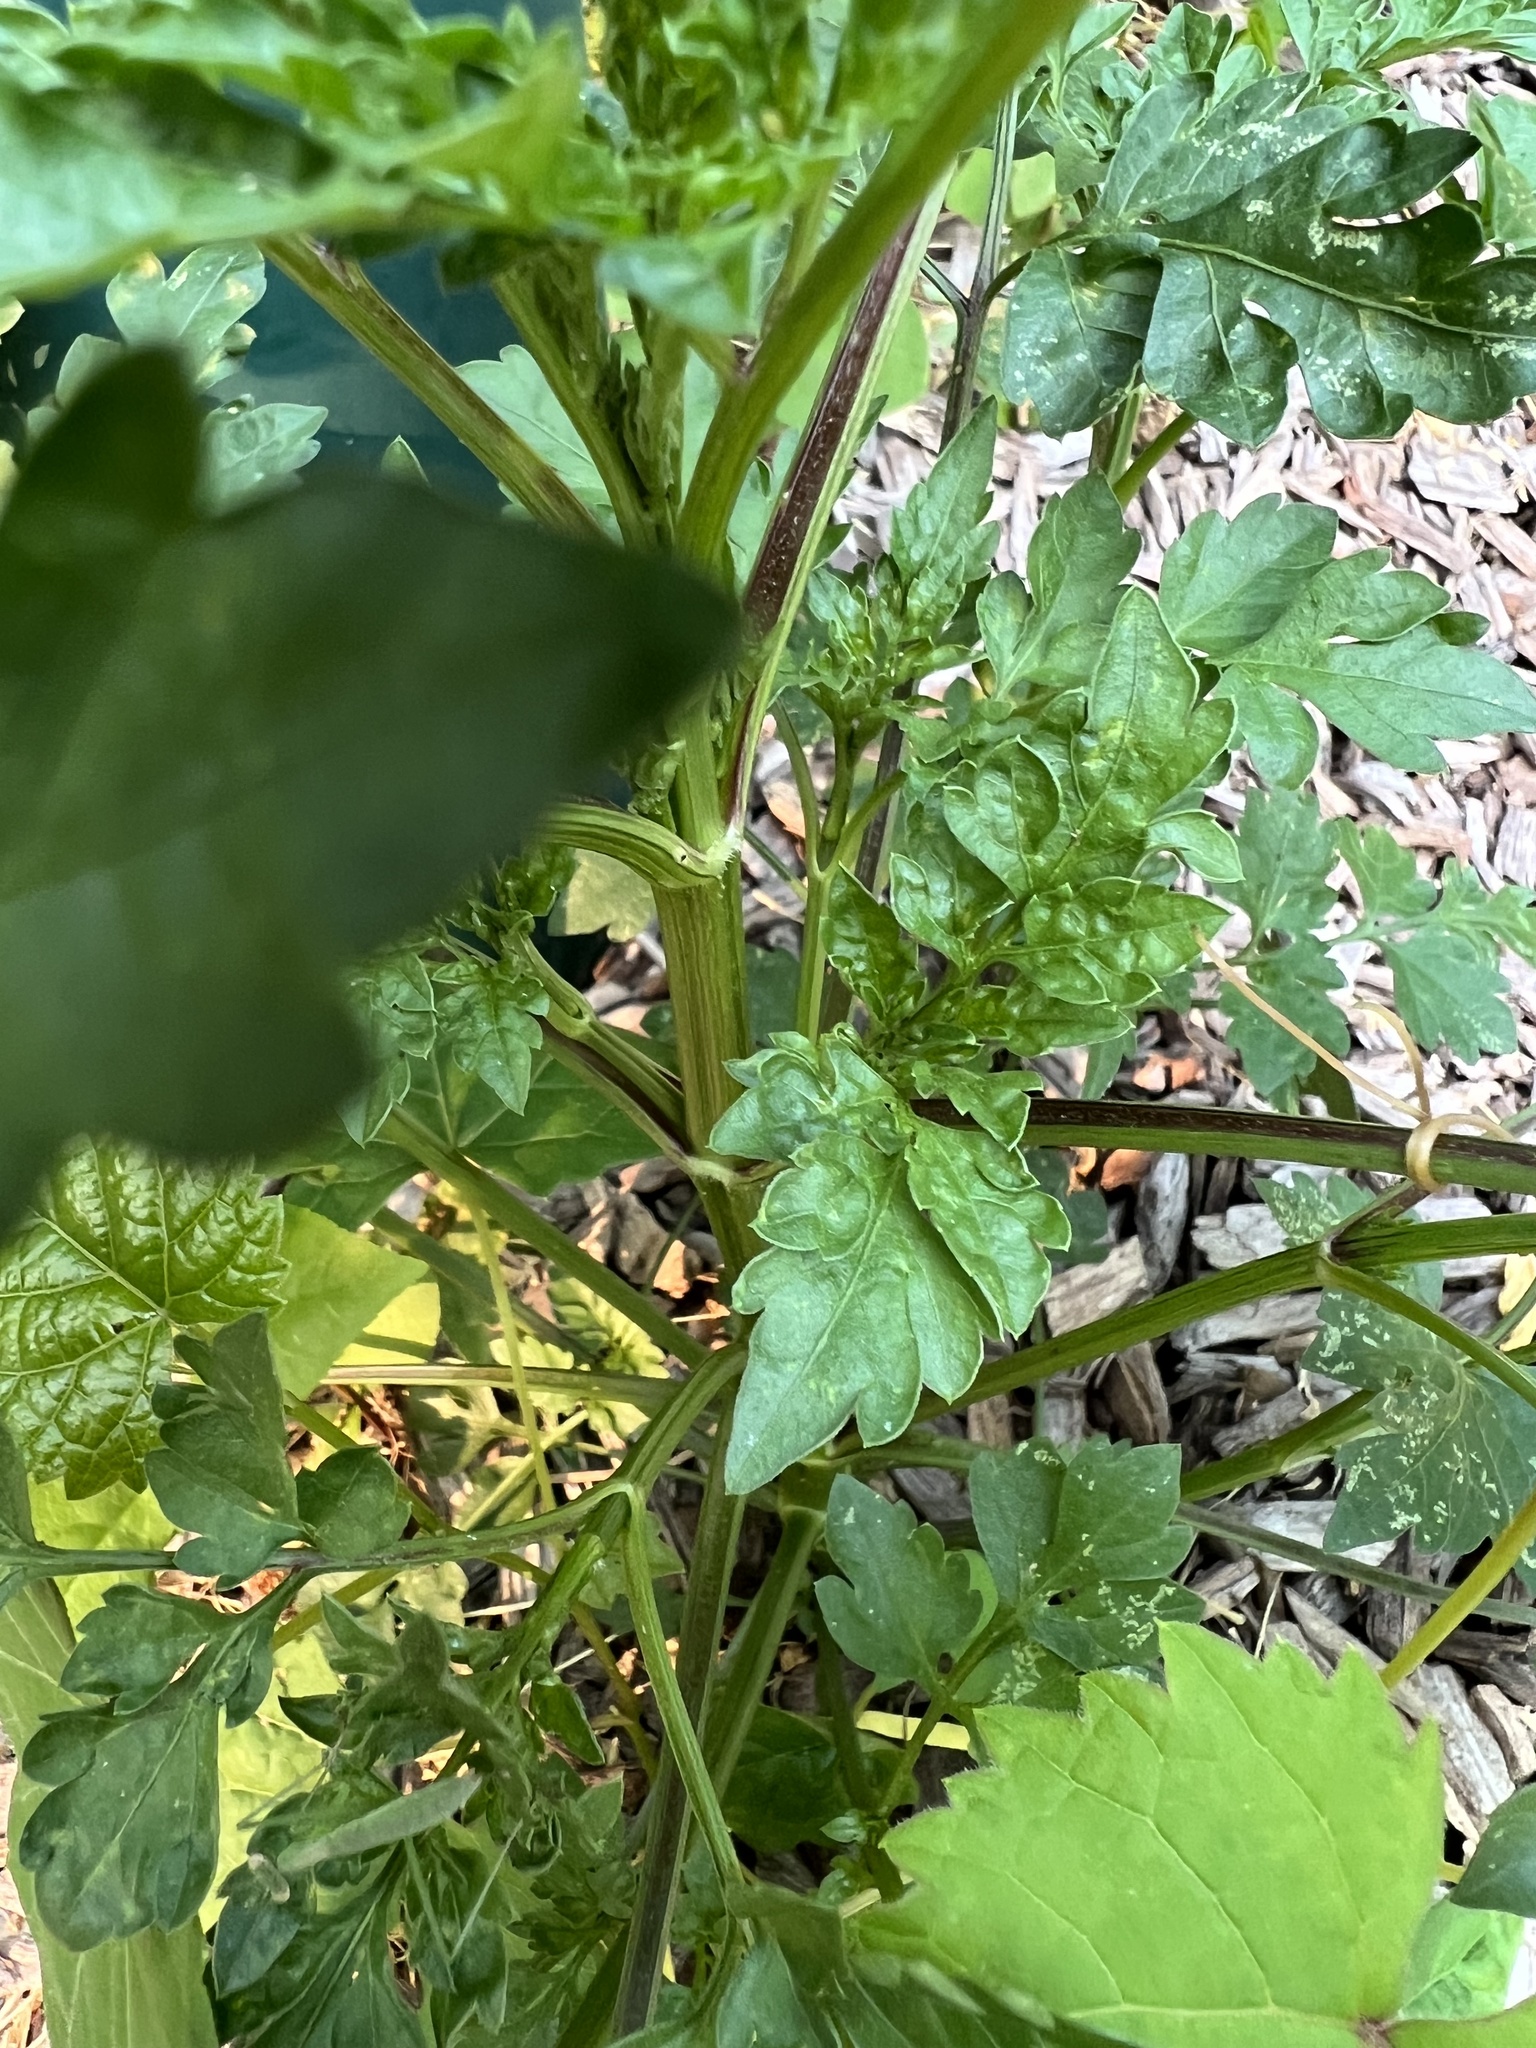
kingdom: Plantae
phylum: Tracheophyta
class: Magnoliopsida
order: Asterales
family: Asteraceae
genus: Bidens
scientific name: Bidens bipinnata
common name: Spanish-needles
